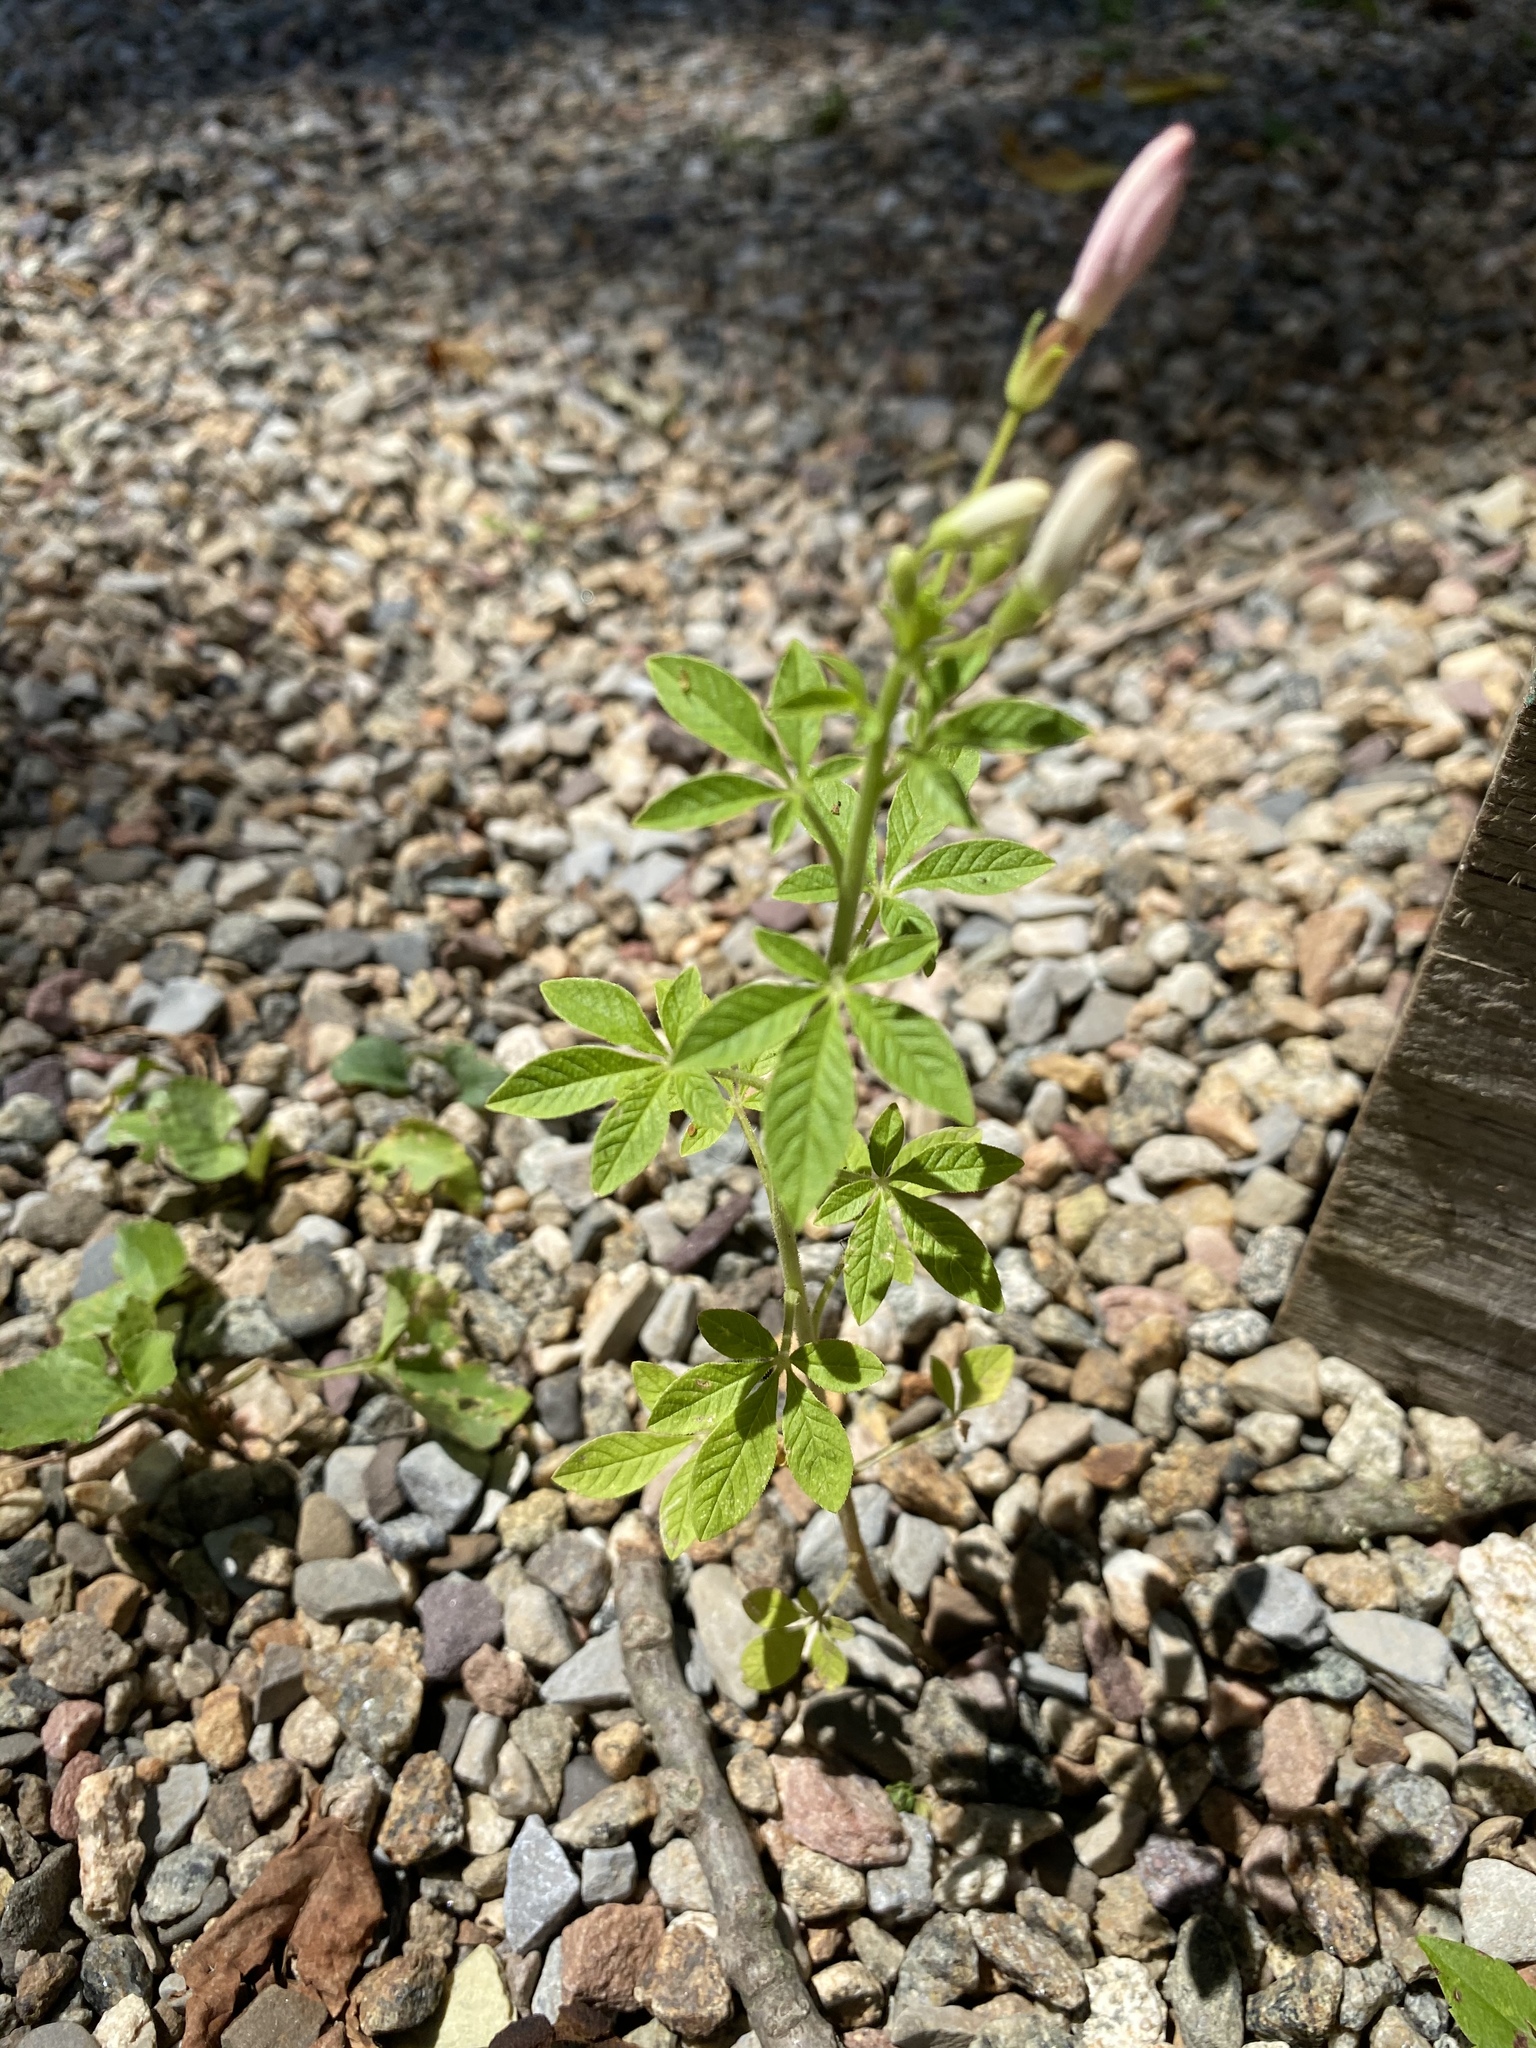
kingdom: Plantae
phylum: Tracheophyta
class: Magnoliopsida
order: Brassicales
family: Cleomaceae
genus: Tarenaya
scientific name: Tarenaya houtteana
